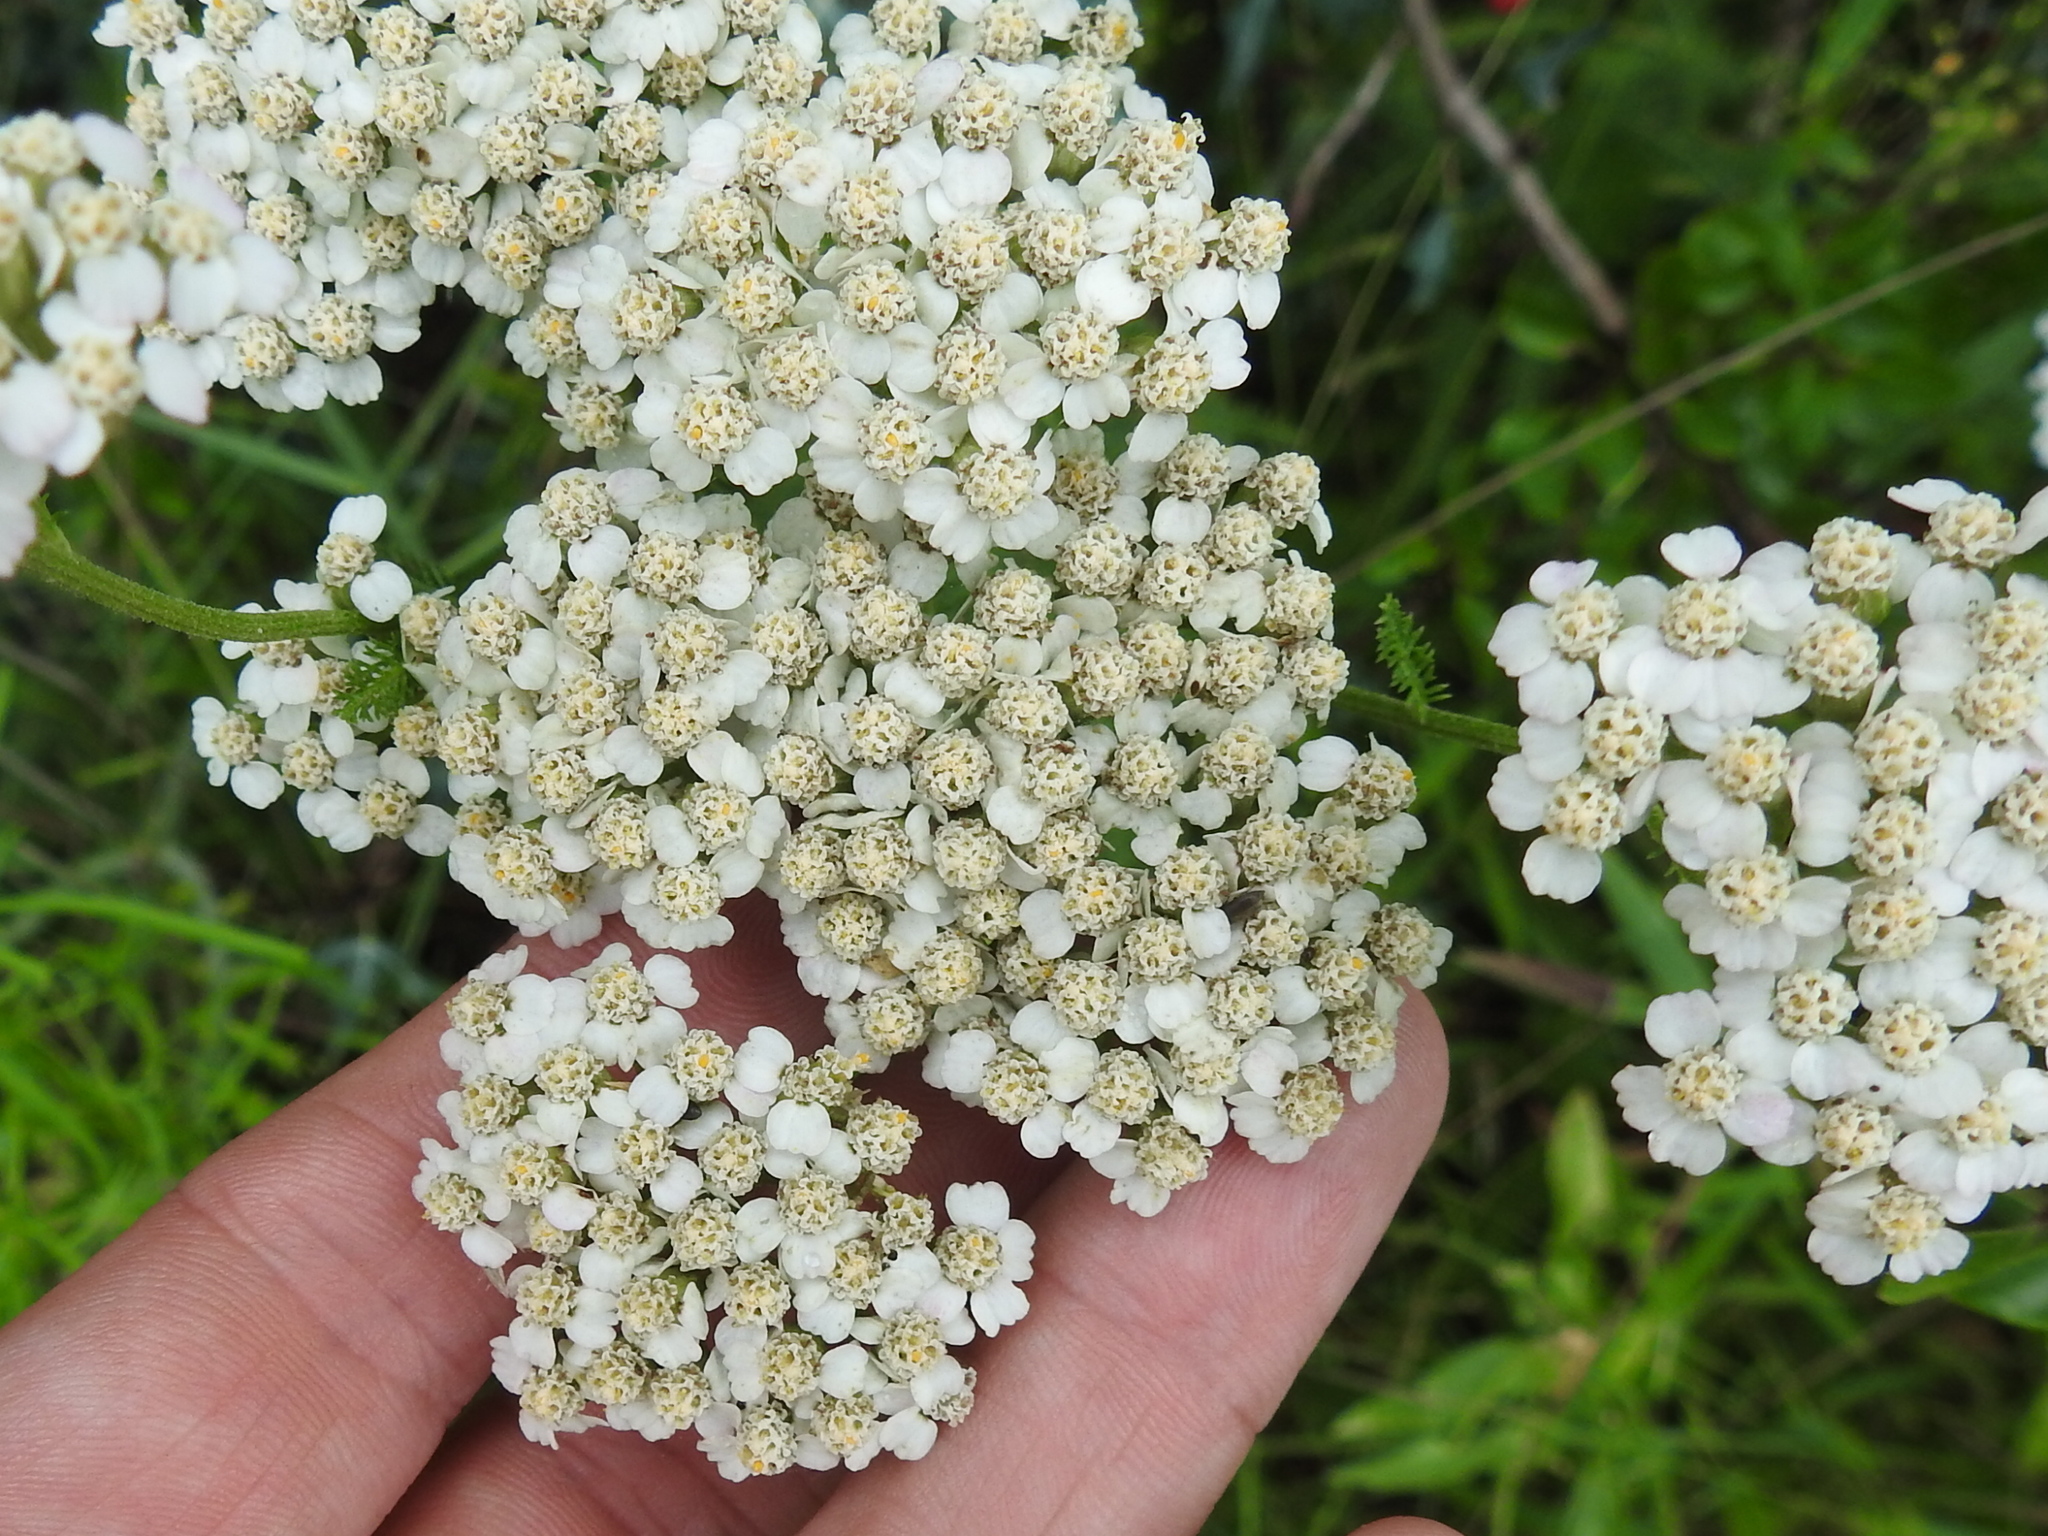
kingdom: Plantae
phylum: Tracheophyta
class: Magnoliopsida
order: Asterales
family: Asteraceae
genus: Achillea
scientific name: Achillea millefolium
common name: Yarrow
